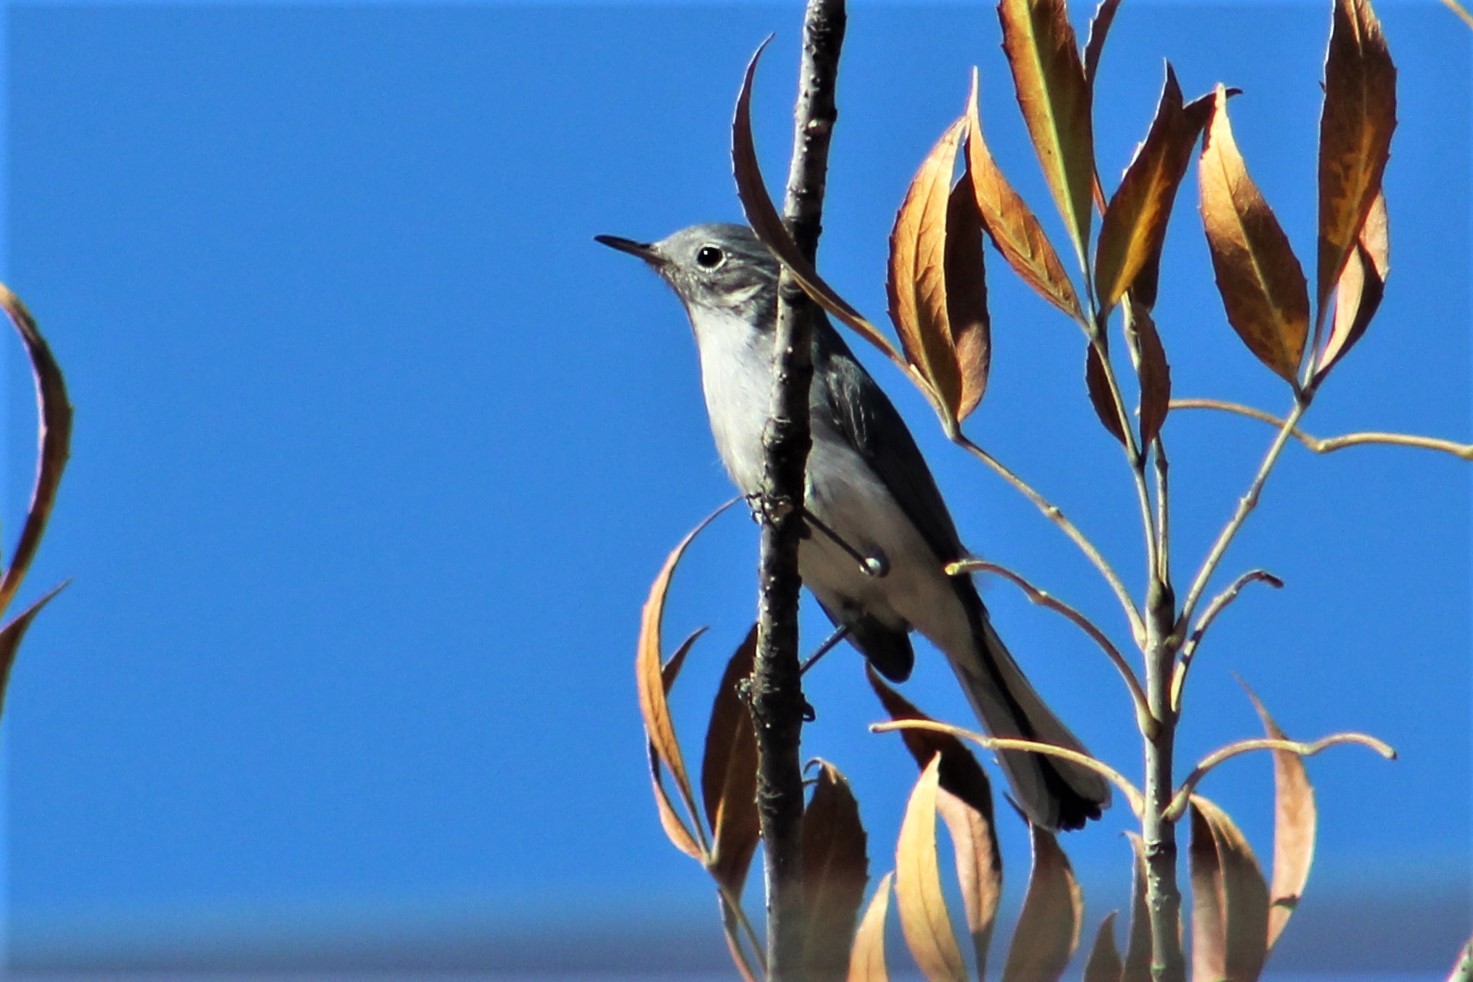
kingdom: Animalia
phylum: Chordata
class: Aves
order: Passeriformes
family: Polioptilidae
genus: Polioptila
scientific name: Polioptila caerulea
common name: Blue-gray gnatcatcher
